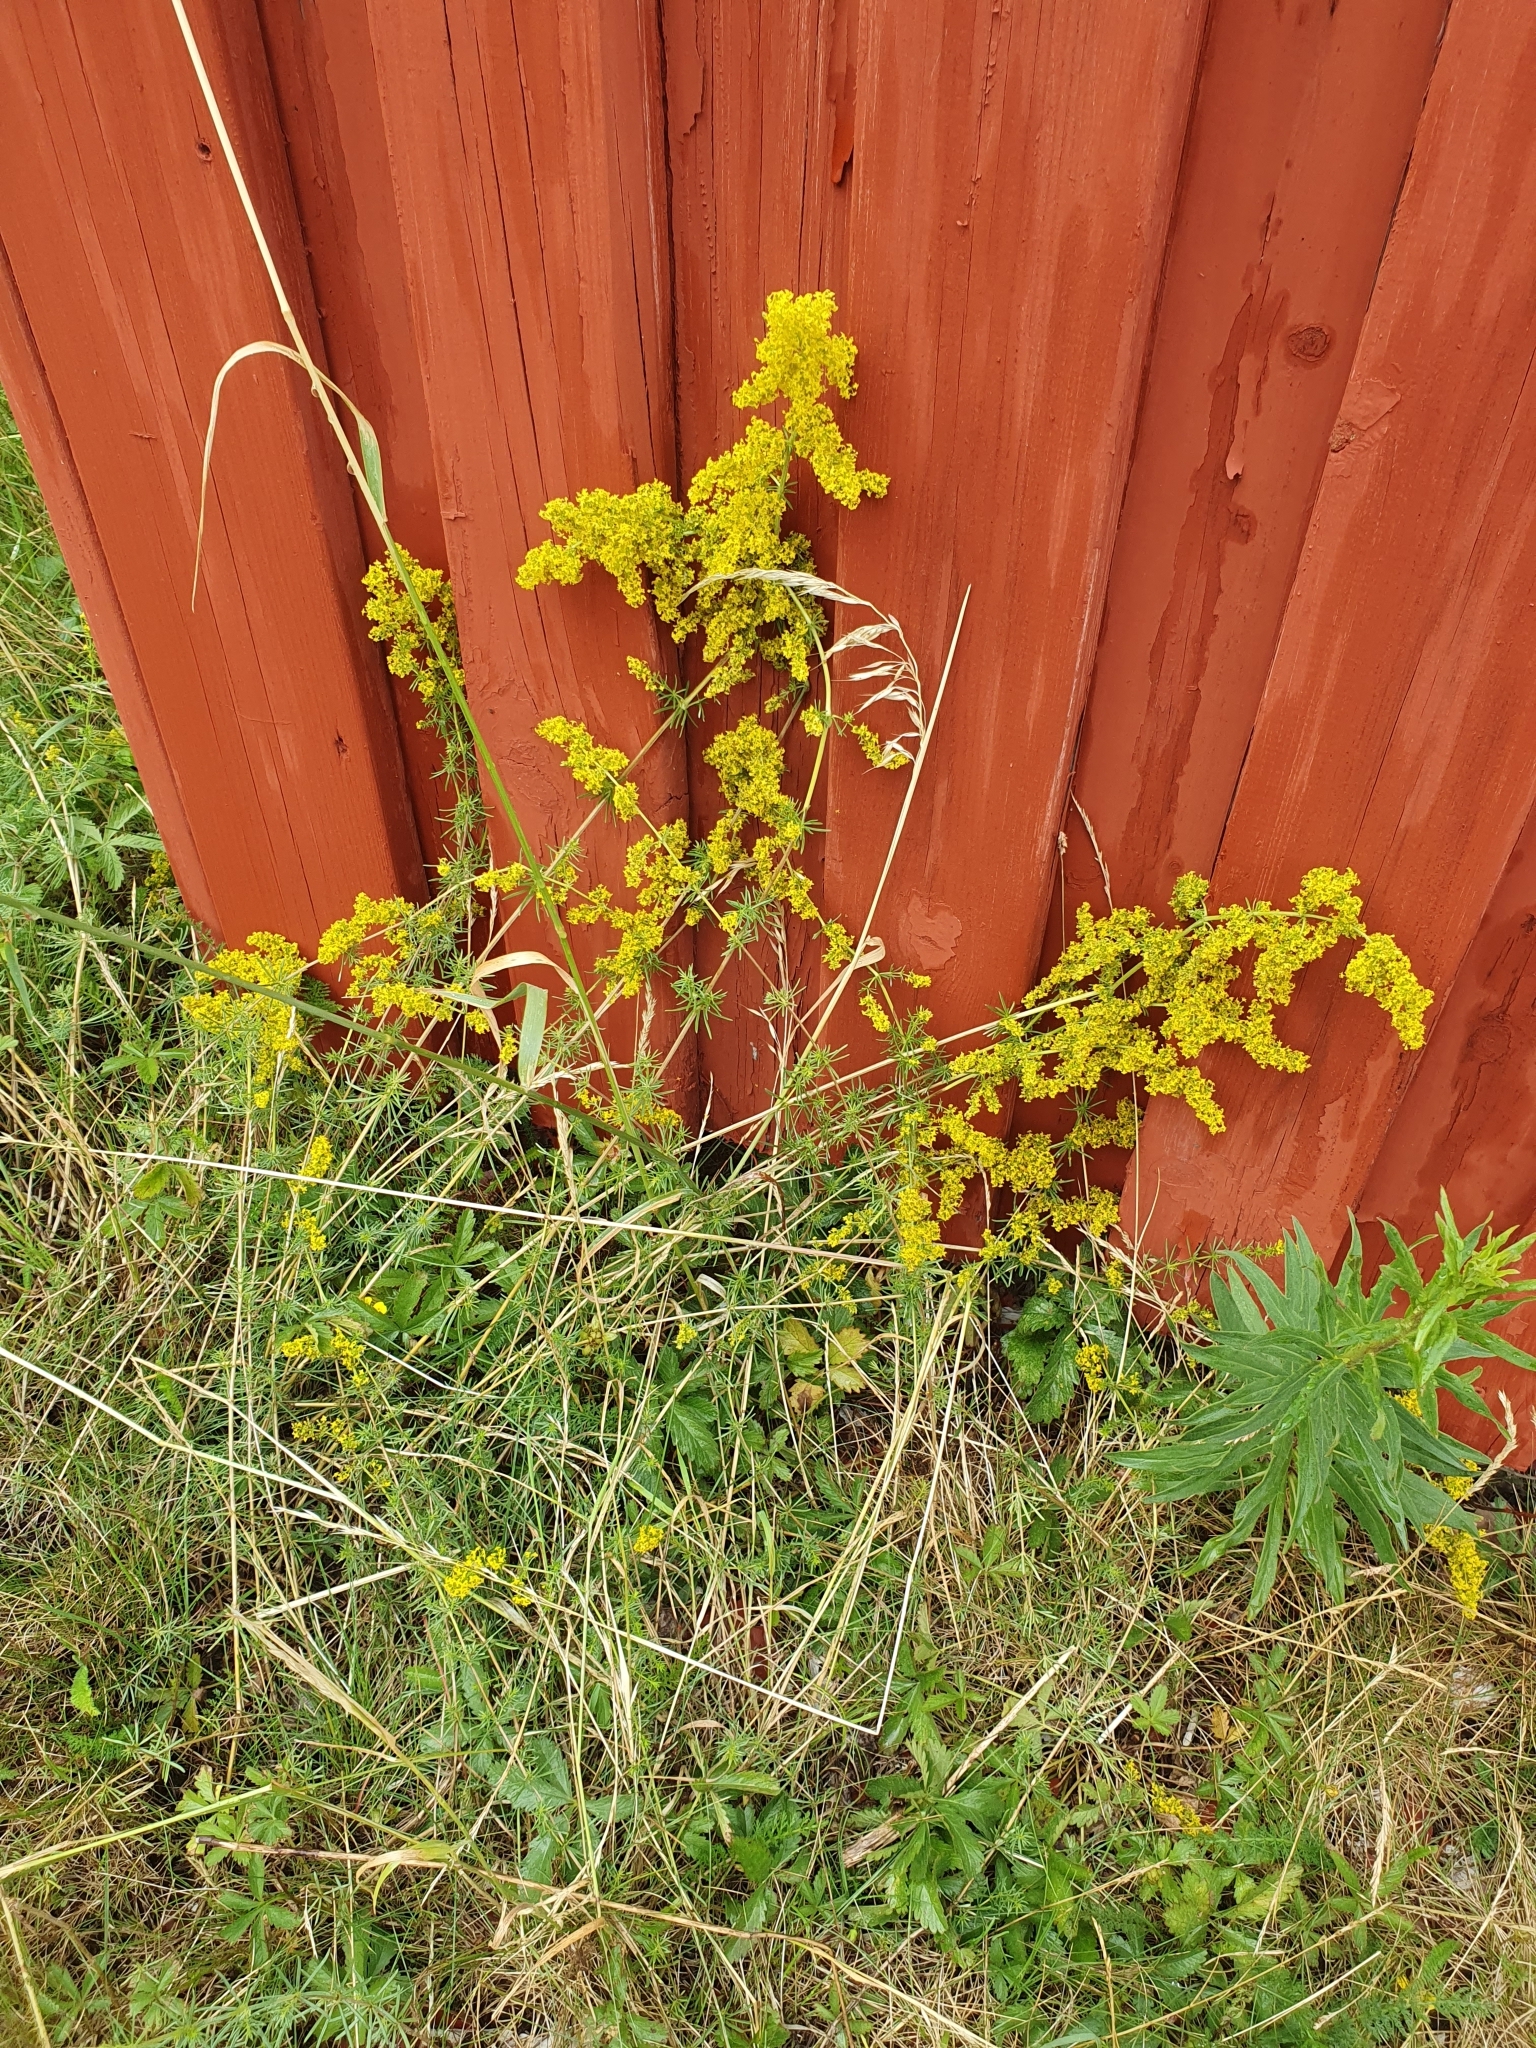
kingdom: Plantae
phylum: Tracheophyta
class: Magnoliopsida
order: Gentianales
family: Rubiaceae
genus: Galium
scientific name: Galium verum
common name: Lady's bedstraw
